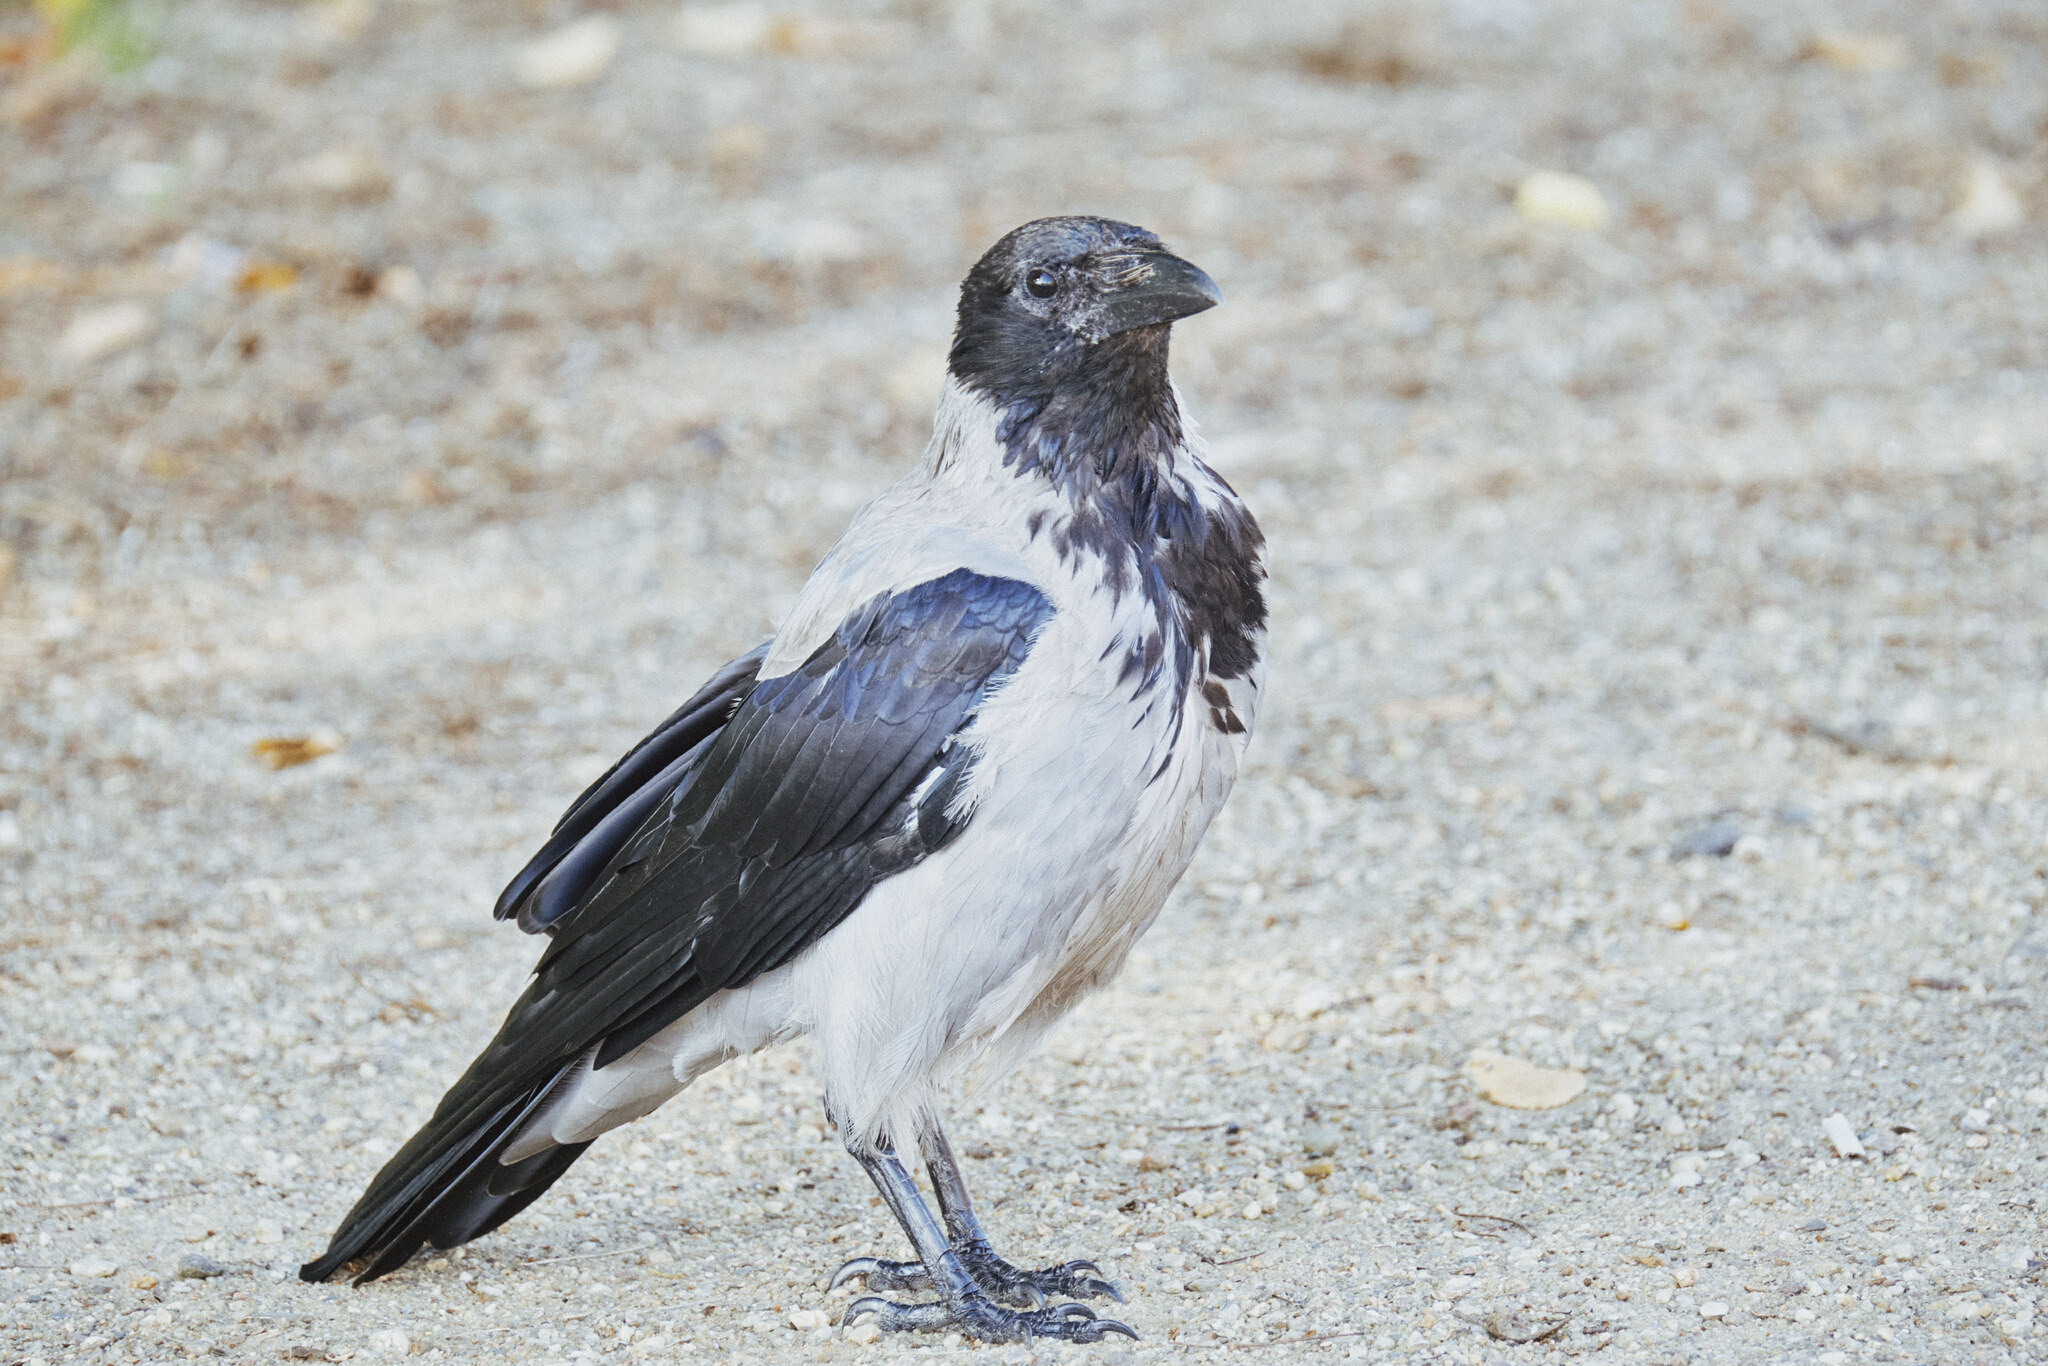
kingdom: Animalia
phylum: Chordata
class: Aves
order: Passeriformes
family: Corvidae
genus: Corvus
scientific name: Corvus cornix
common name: Hooded crow
